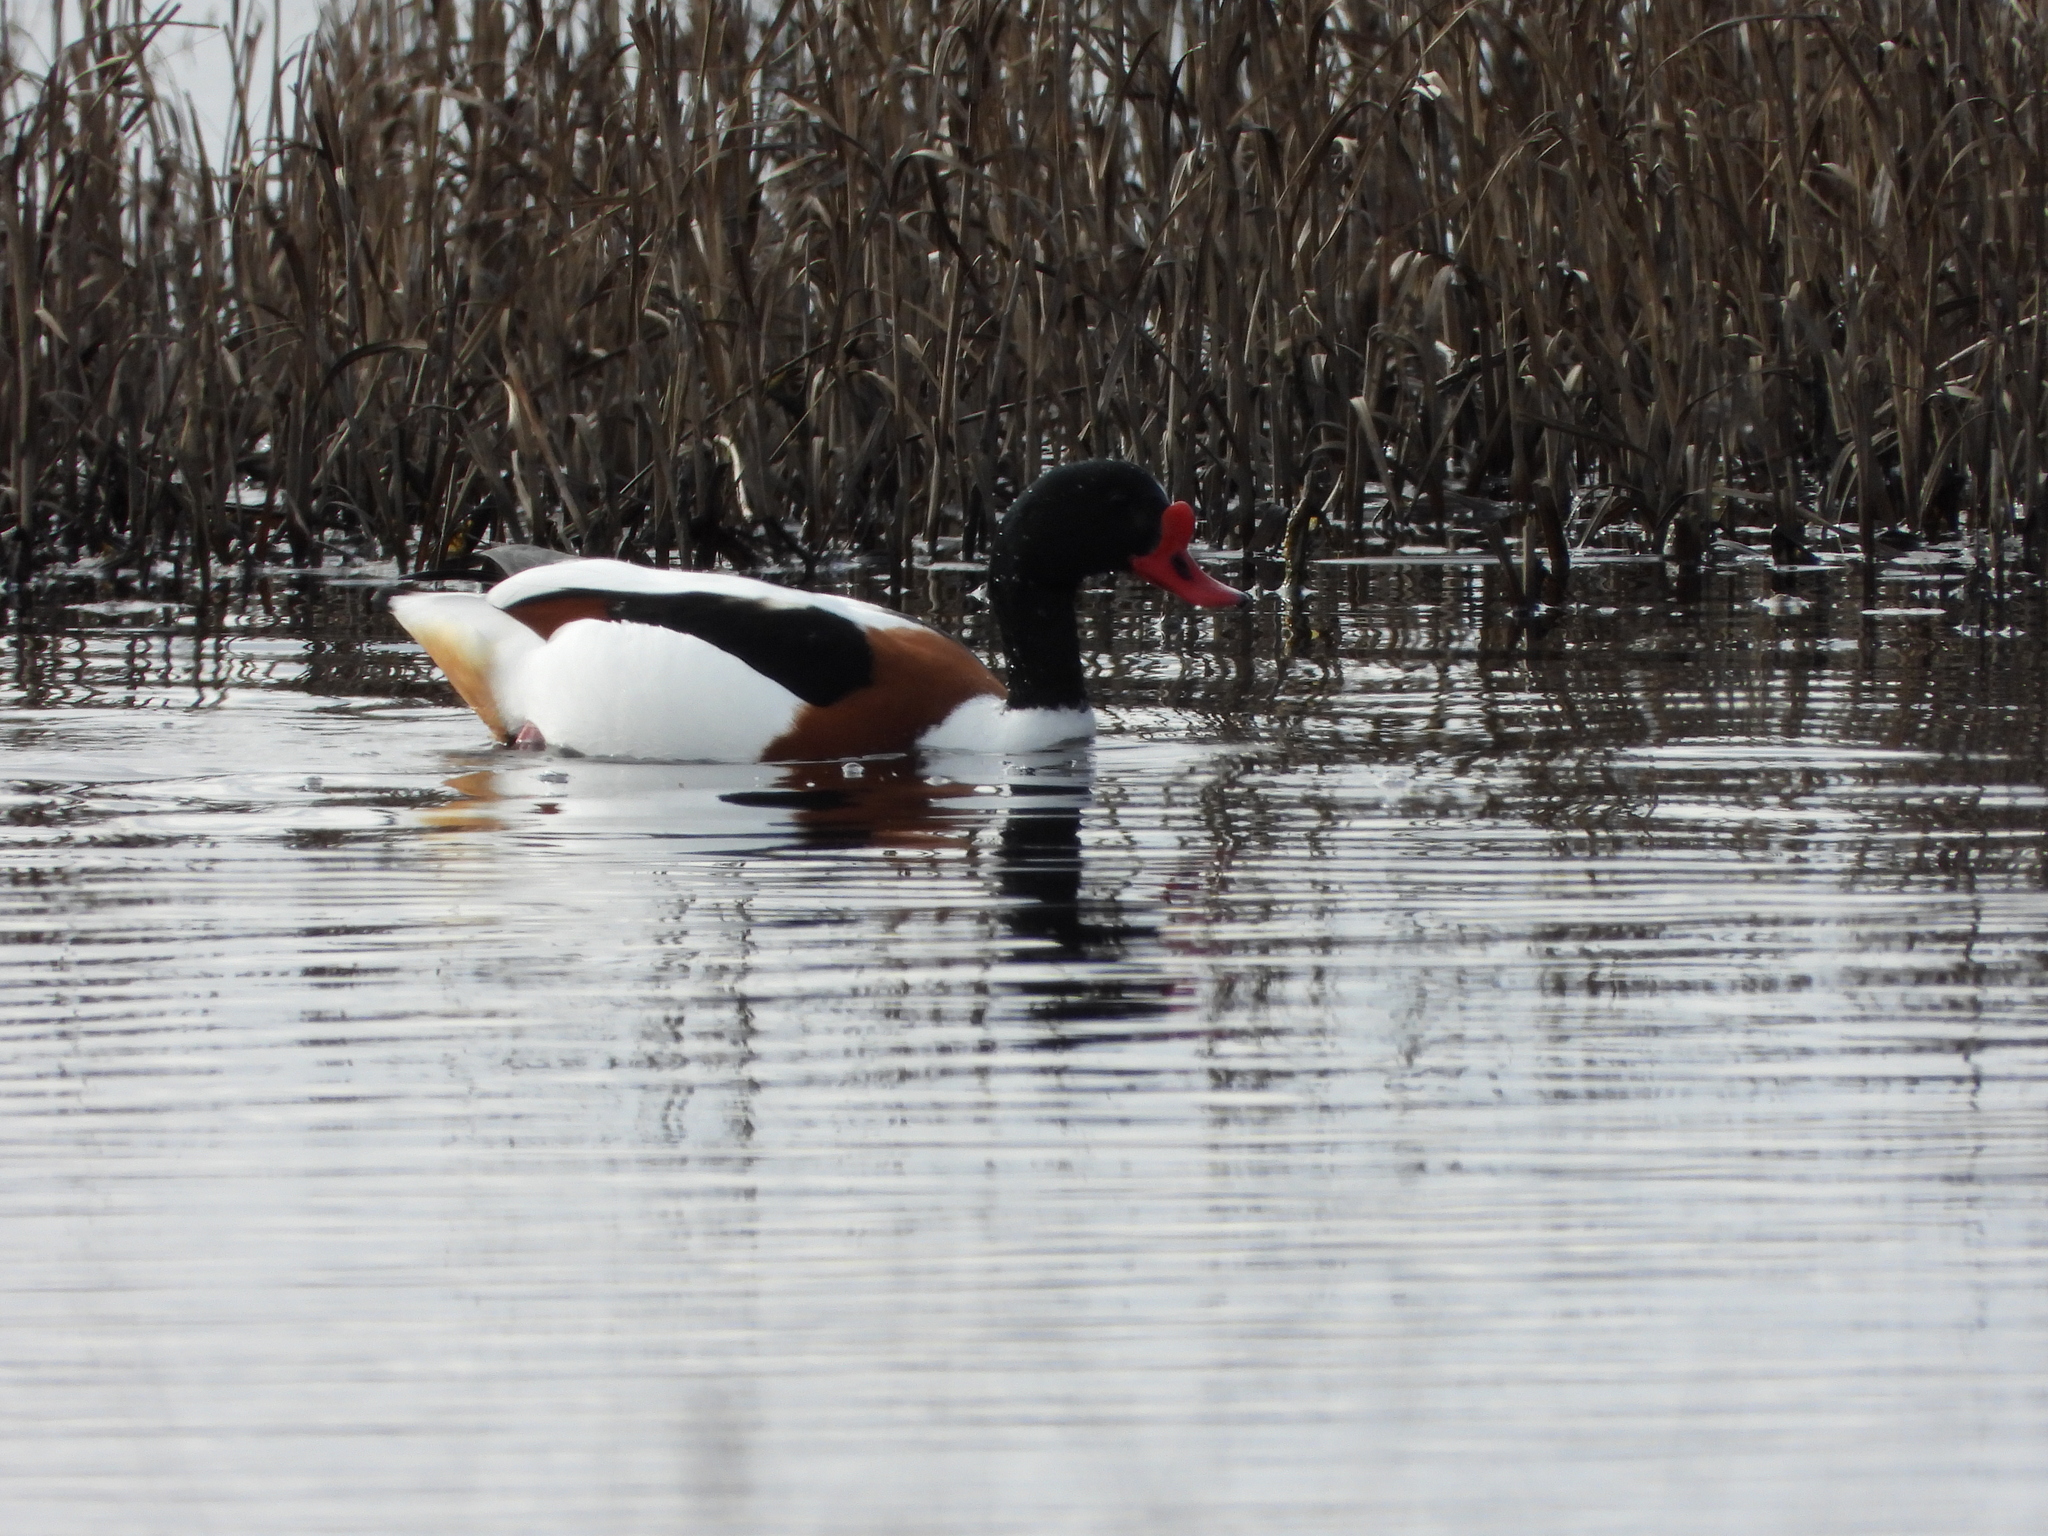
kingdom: Animalia
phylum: Chordata
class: Aves
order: Anseriformes
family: Anatidae
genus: Tadorna
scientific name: Tadorna tadorna
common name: Common shelduck
